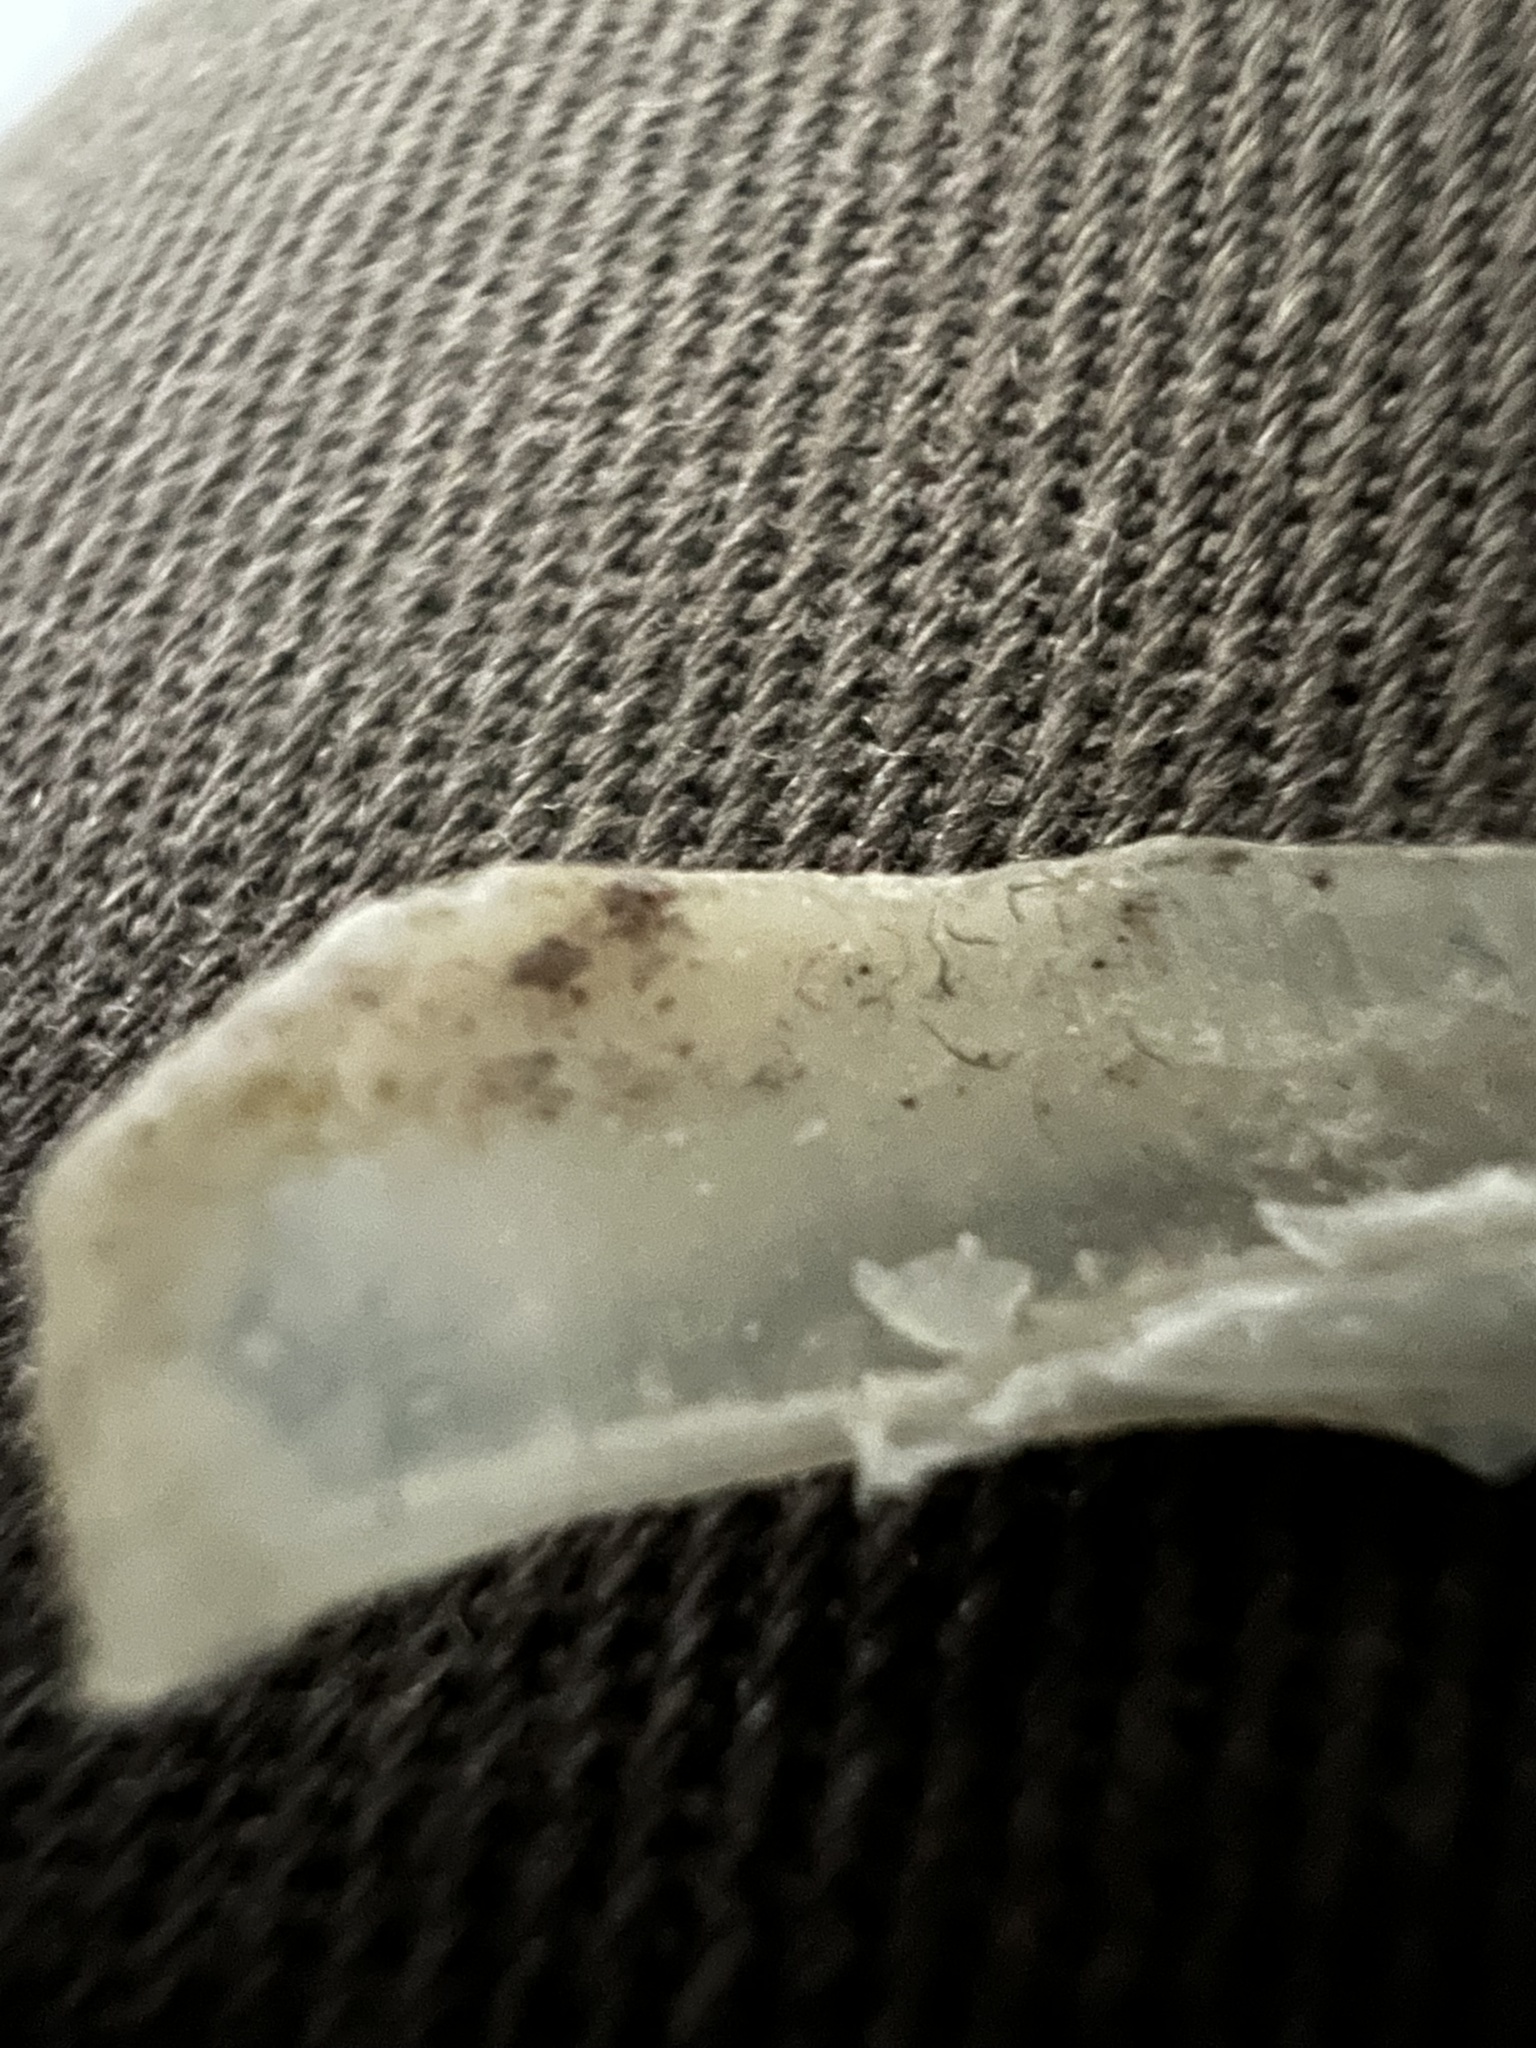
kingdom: Bacteria
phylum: Actinobacteriota
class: Actinomycetia
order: Actinomycetales
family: Brevibacteriaceae
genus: Brevibacterium
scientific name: Brevibacterium casei
